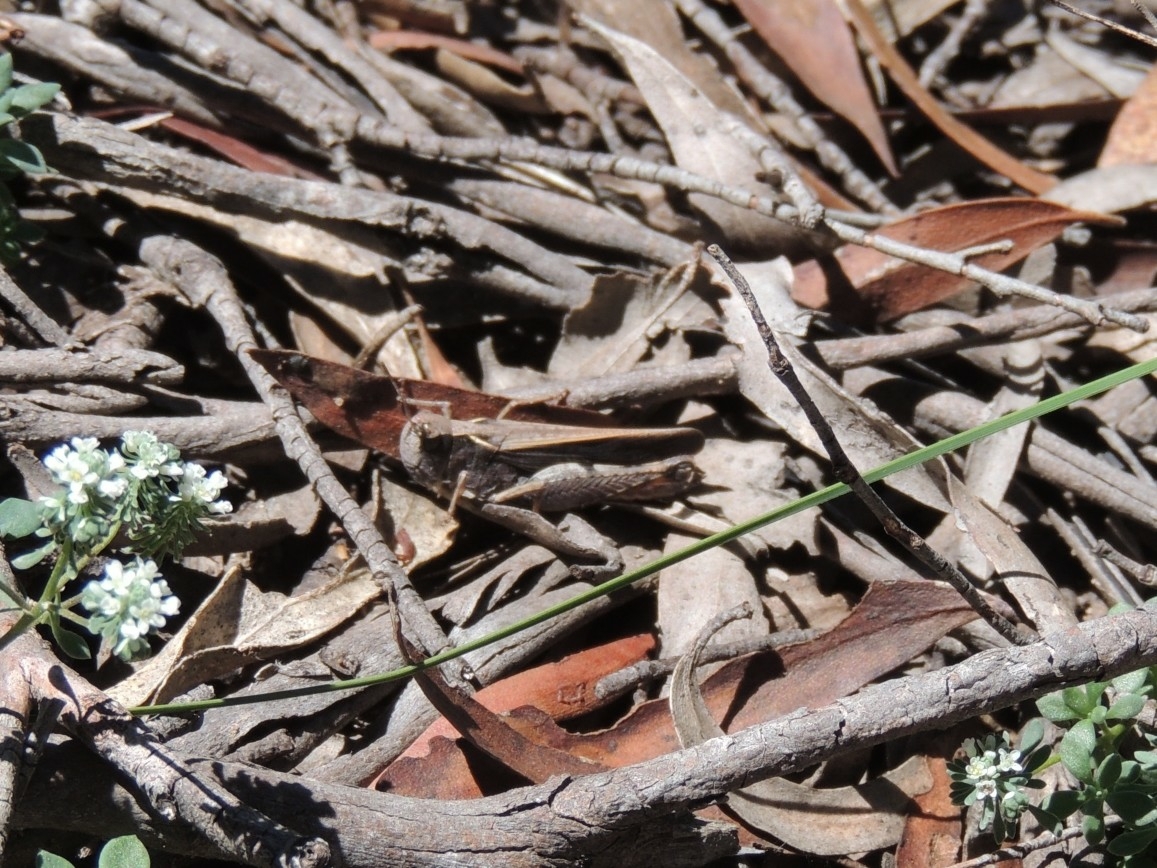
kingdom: Animalia
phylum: Arthropoda
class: Insecta
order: Orthoptera
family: Acrididae
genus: Cryptobothrus
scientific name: Cryptobothrus chrysophorus
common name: Golden bandwing
